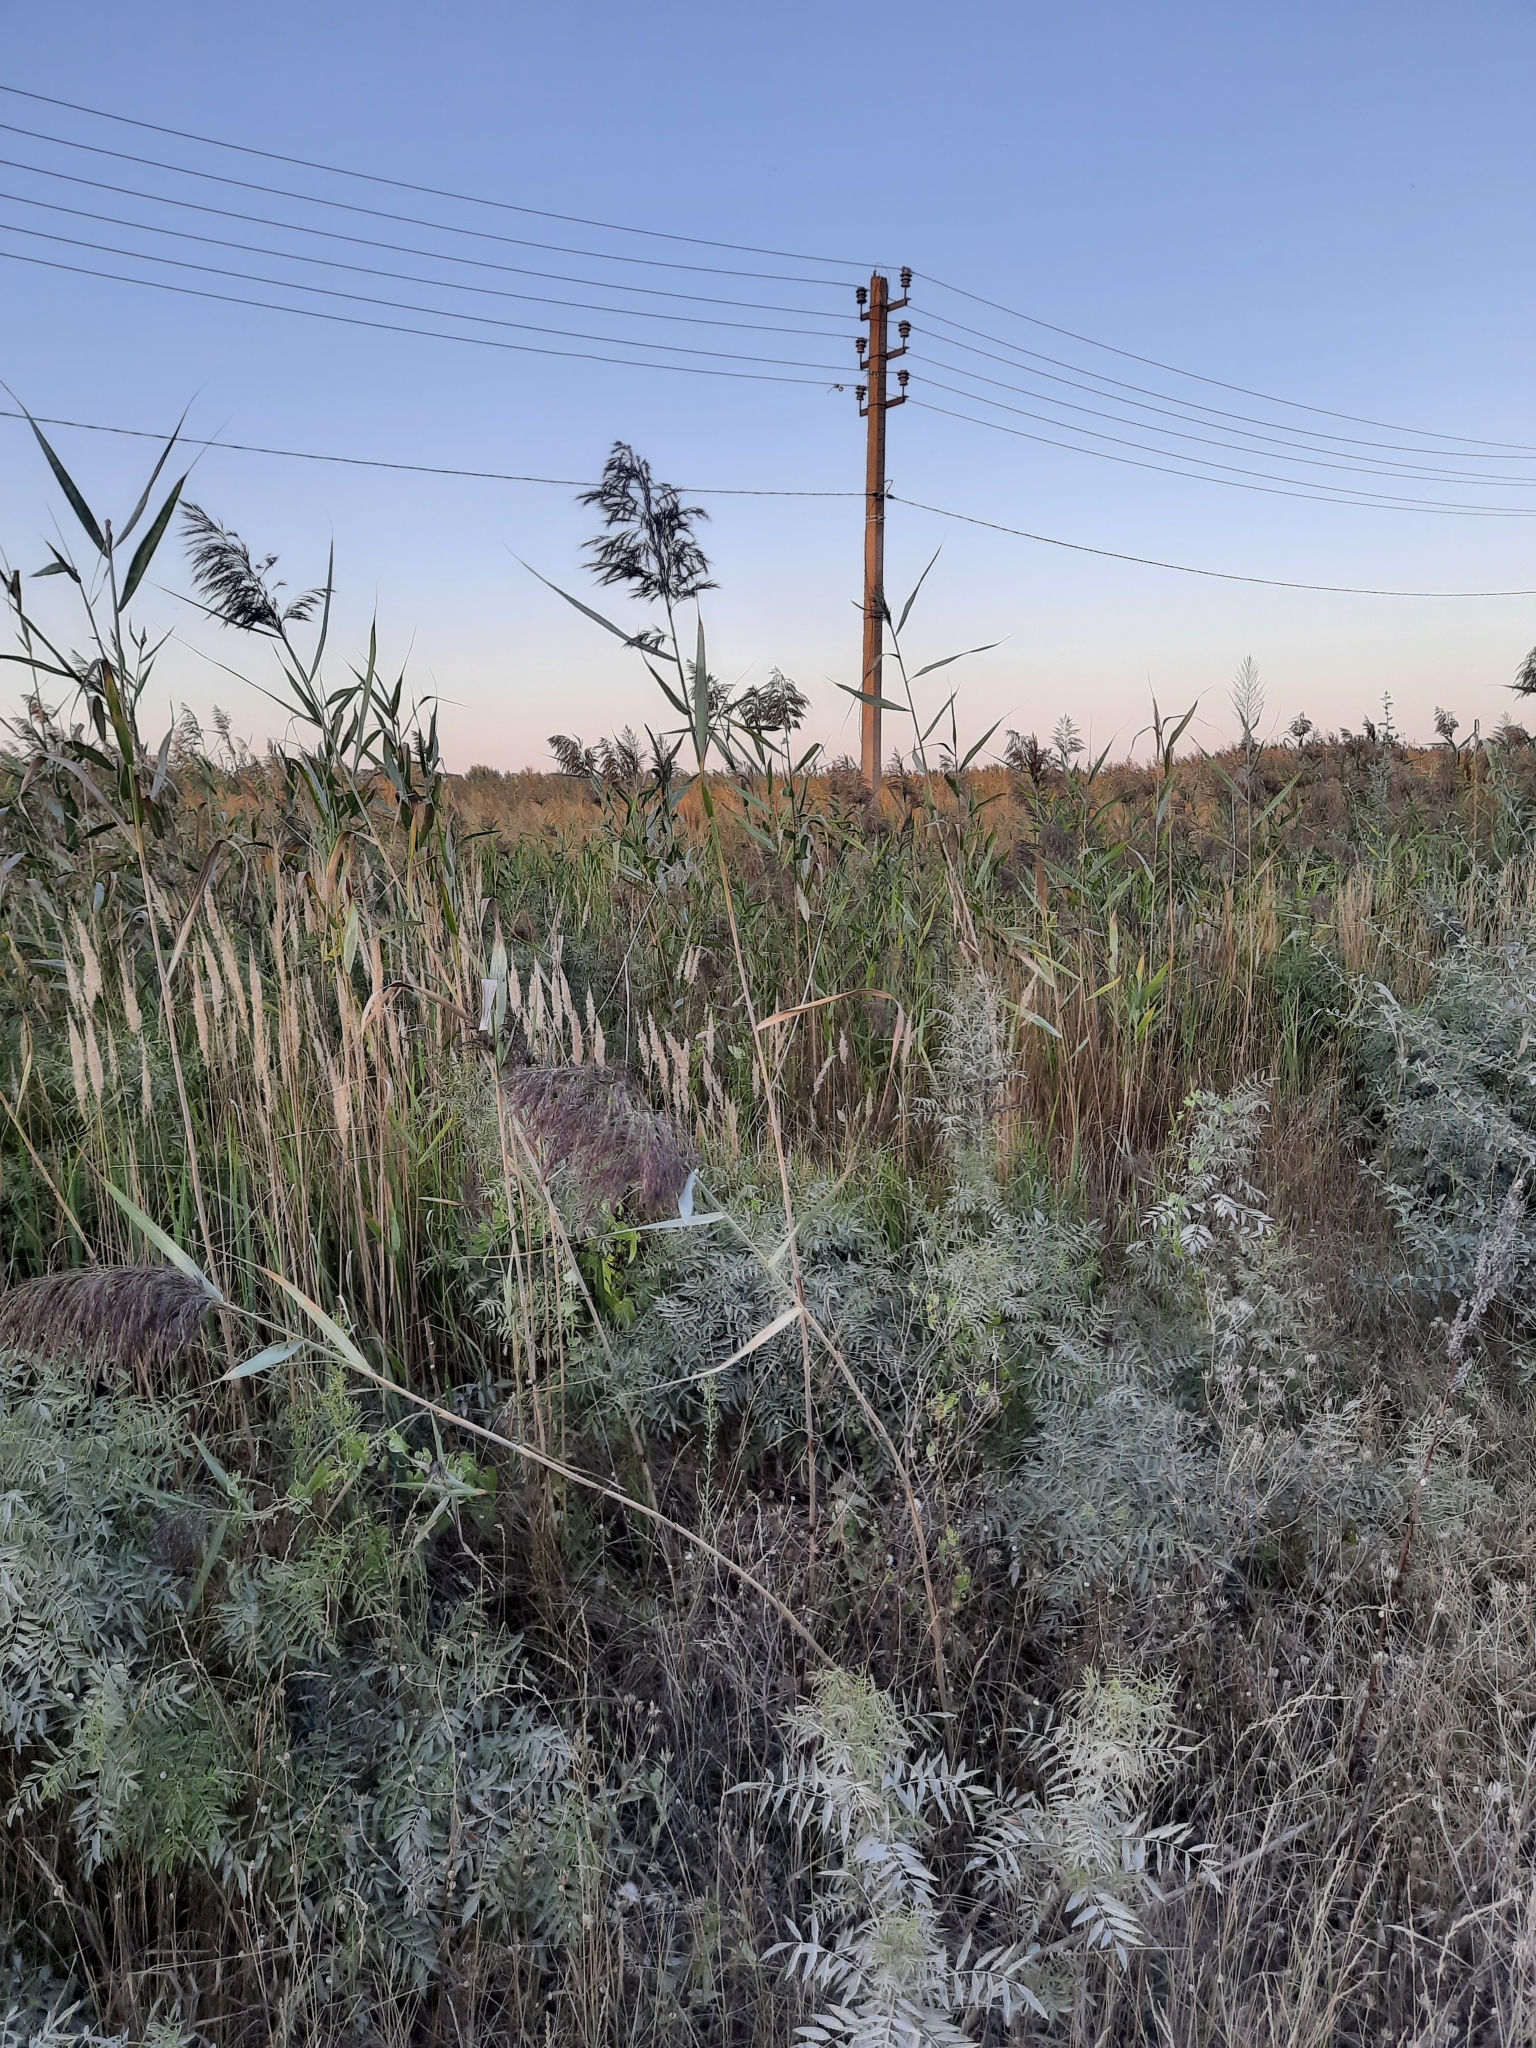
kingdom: Plantae
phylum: Tracheophyta
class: Liliopsida
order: Poales
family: Poaceae
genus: Phragmites
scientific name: Phragmites australis
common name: Common reed
